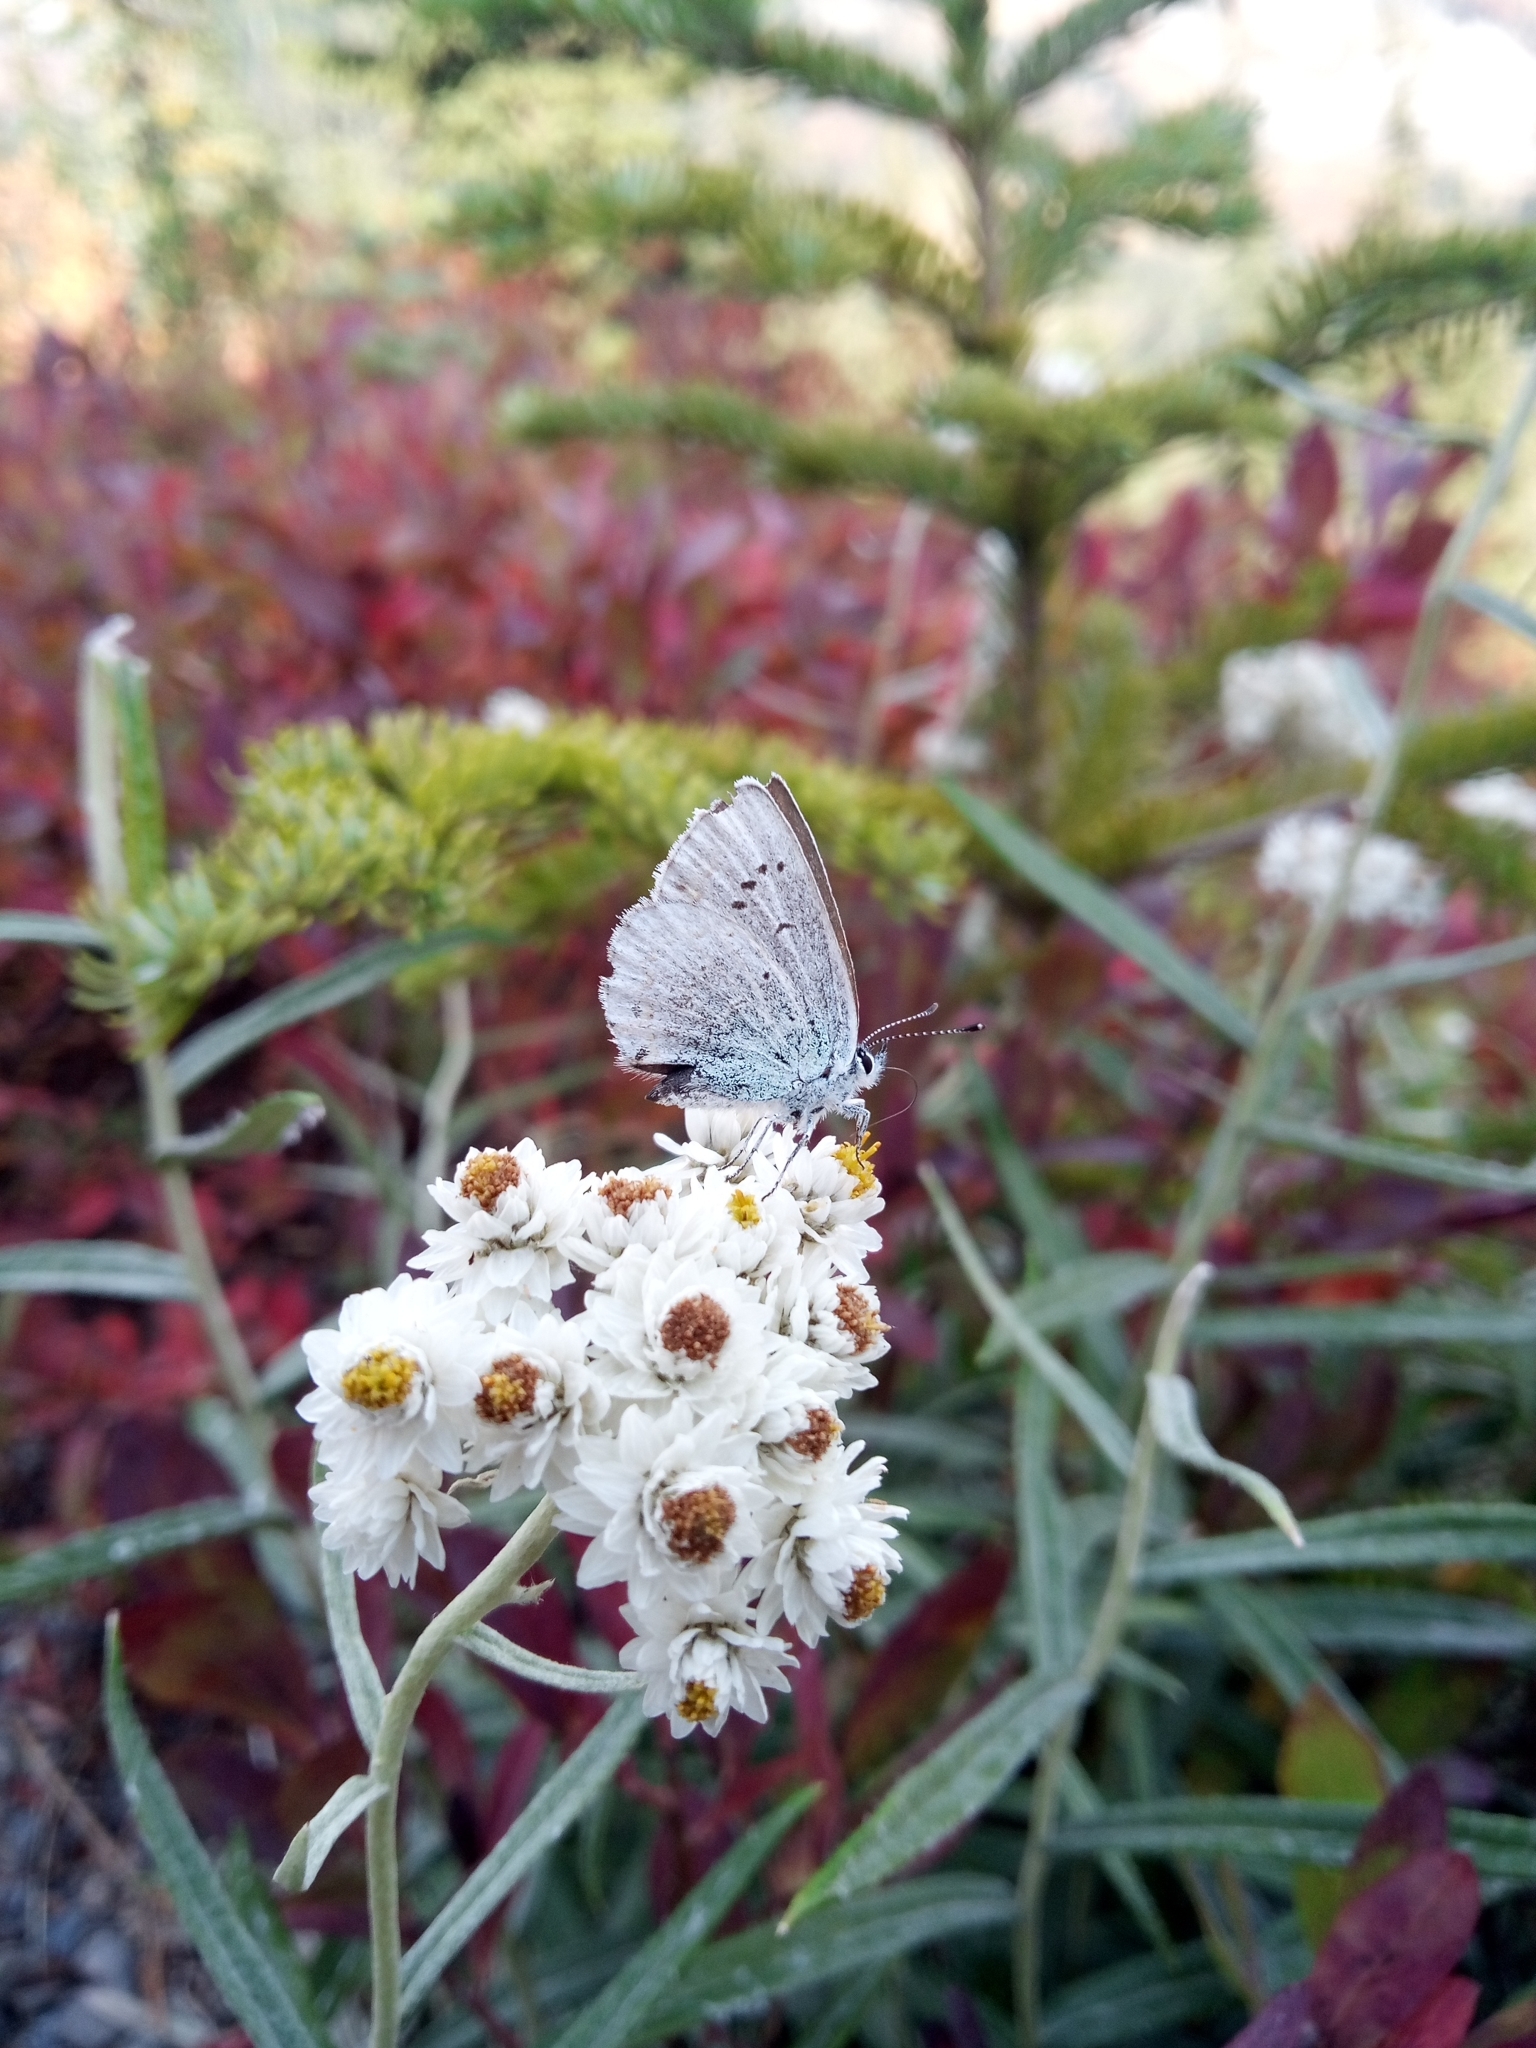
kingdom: Animalia
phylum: Arthropoda
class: Insecta
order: Lepidoptera
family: Lycaenidae
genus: Celastrina
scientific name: Celastrina ladon
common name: Spring azure
